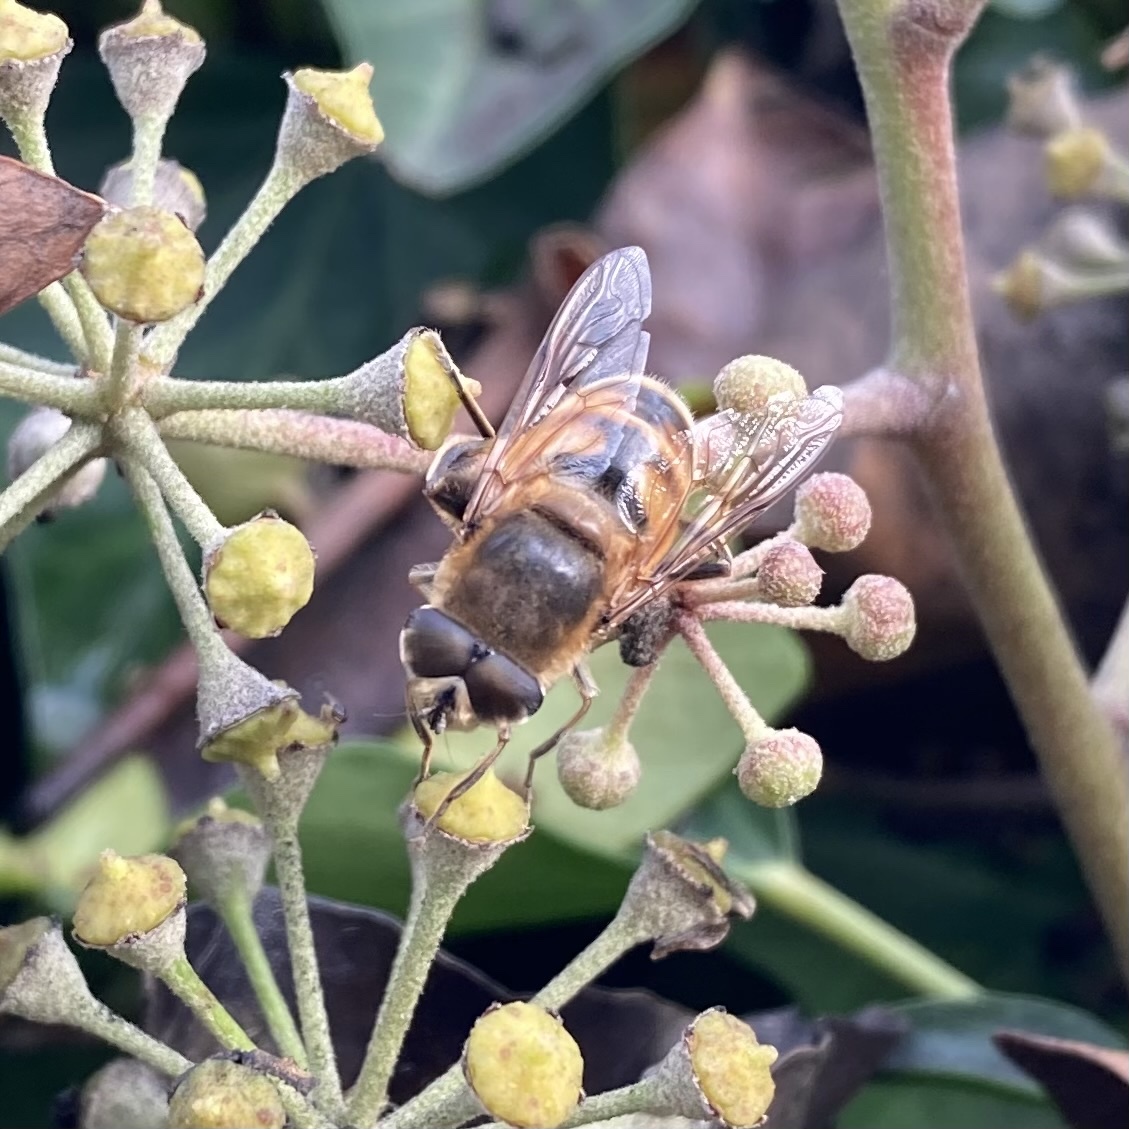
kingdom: Animalia
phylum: Arthropoda
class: Insecta
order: Diptera
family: Syrphidae
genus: Eristalis
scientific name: Eristalis tenax
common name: Drone fly
